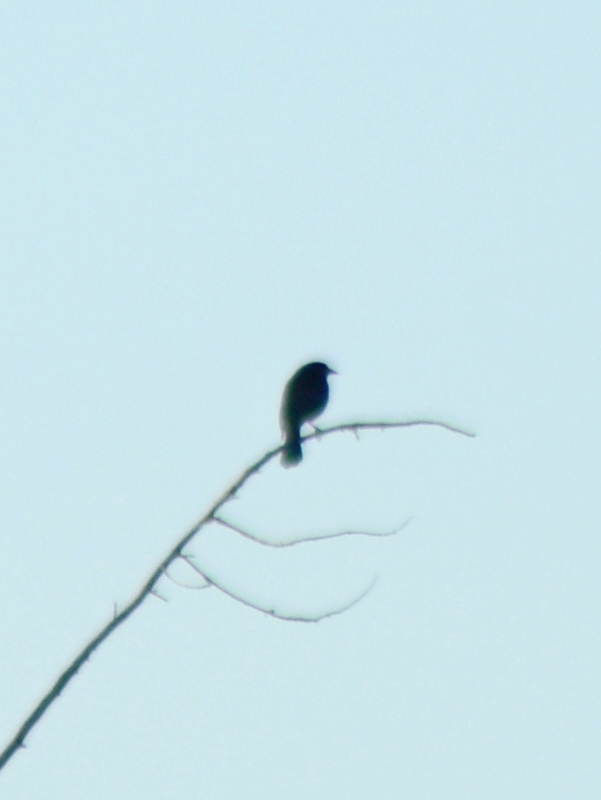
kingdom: Animalia
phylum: Chordata
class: Aves
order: Passeriformes
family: Icteridae
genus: Molothrus
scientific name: Molothrus aeneus
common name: Bronzed cowbird
